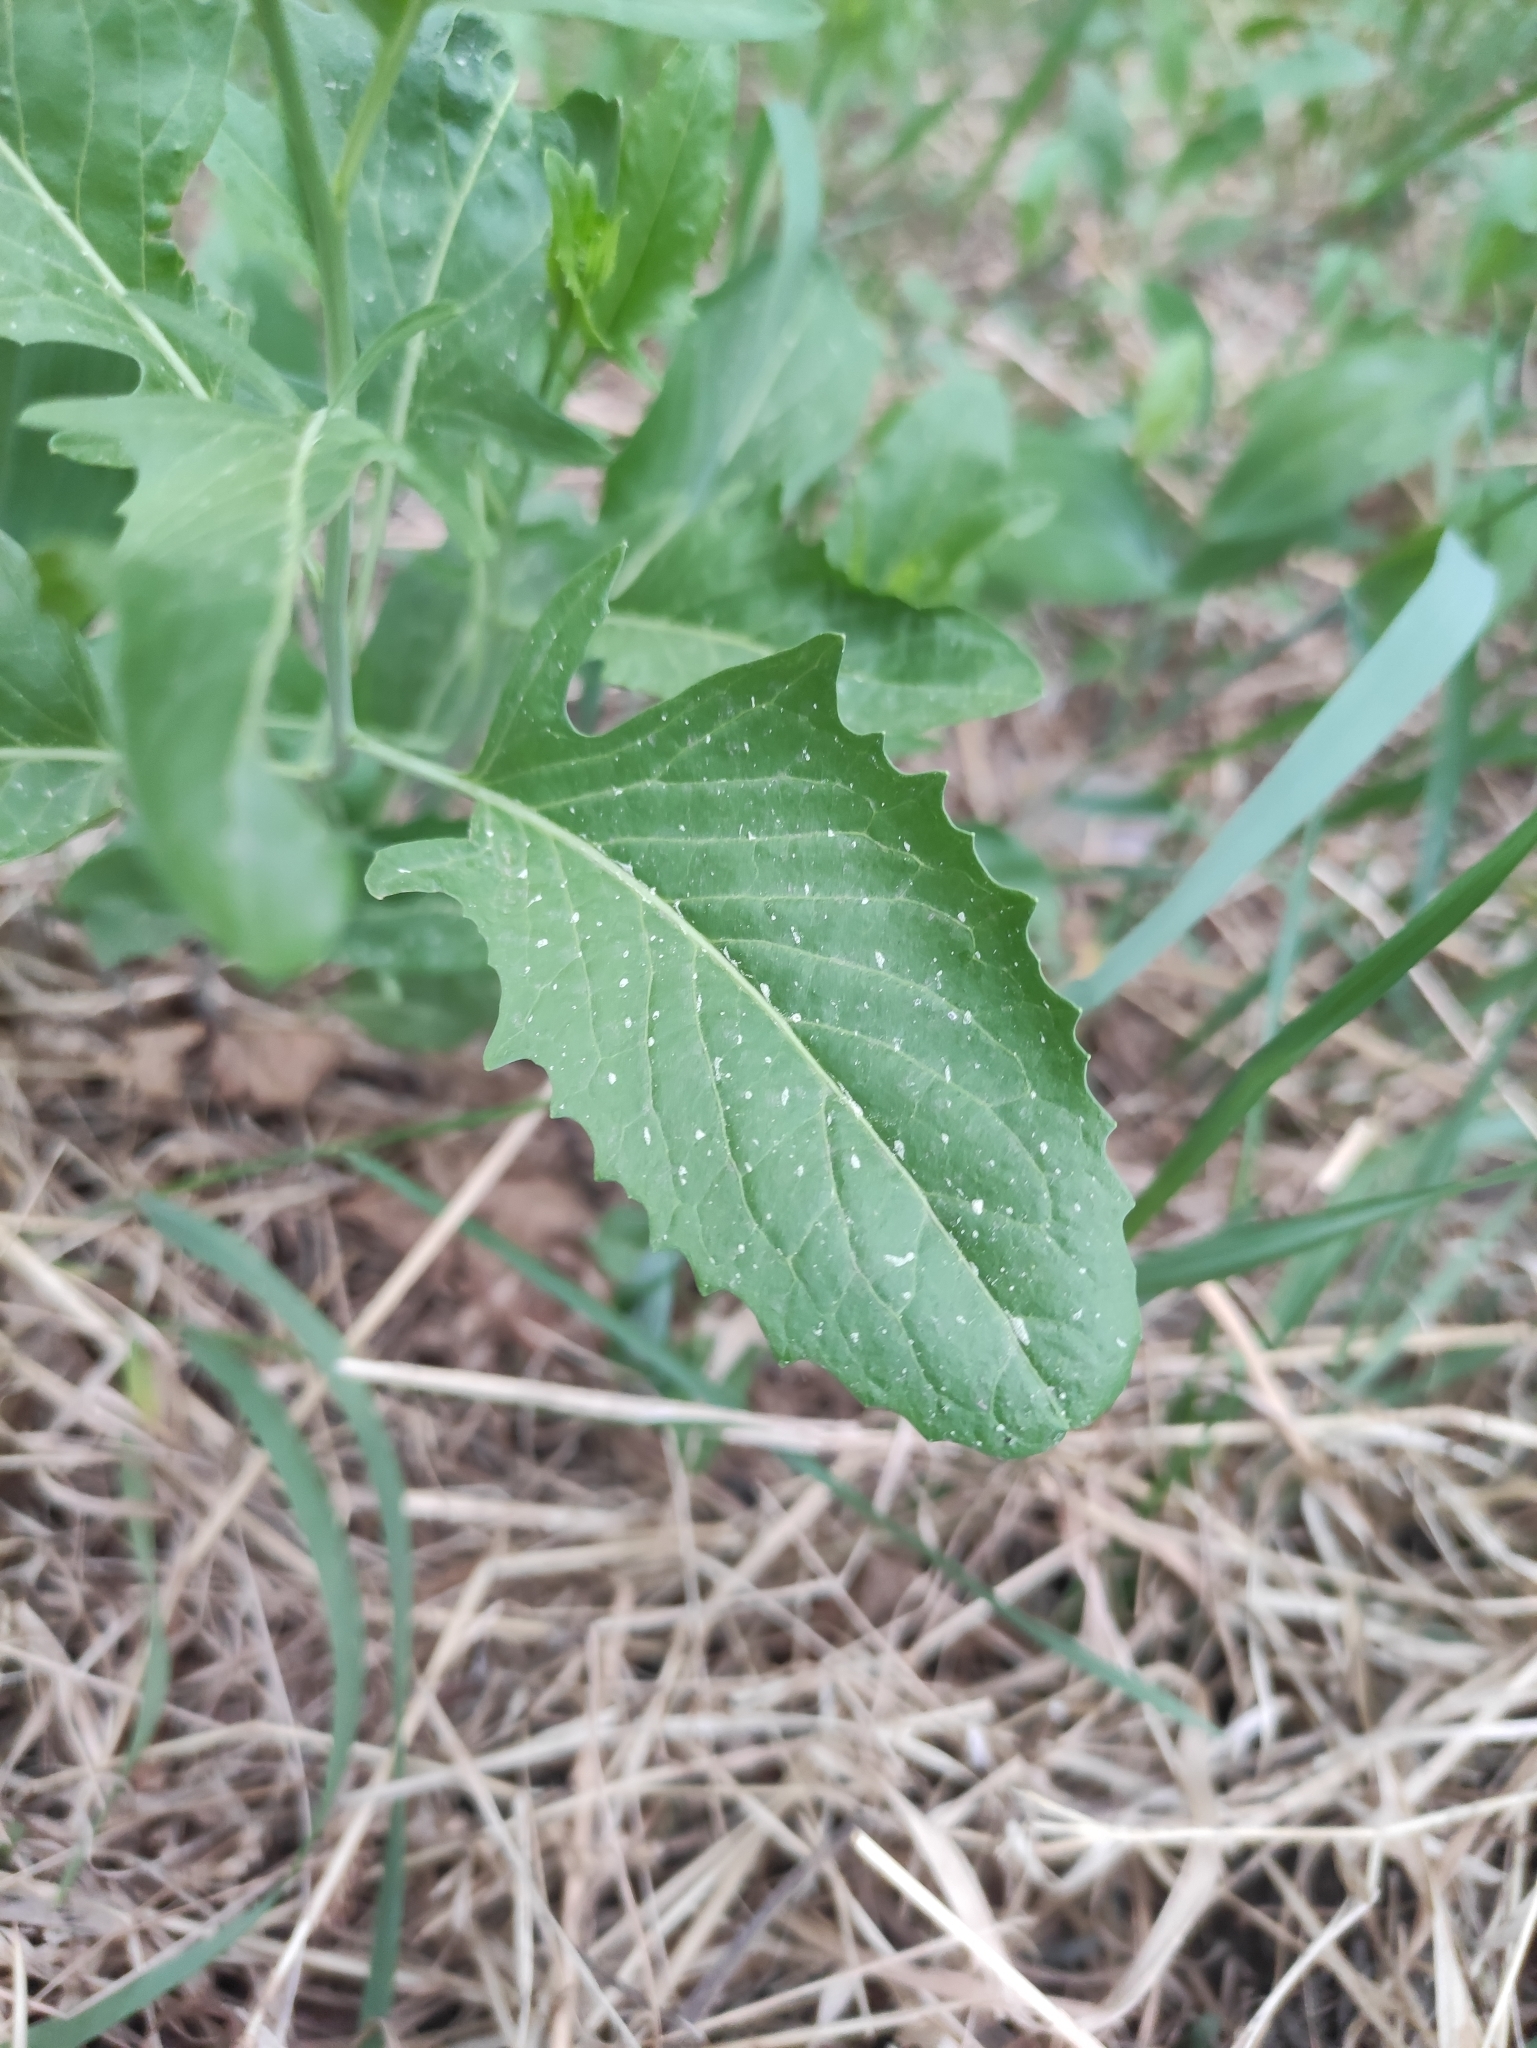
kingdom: Plantae
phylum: Tracheophyta
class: Magnoliopsida
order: Brassicales
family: Brassicaceae
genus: Sisymbrium
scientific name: Sisymbrium volgense
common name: Russian mustard
